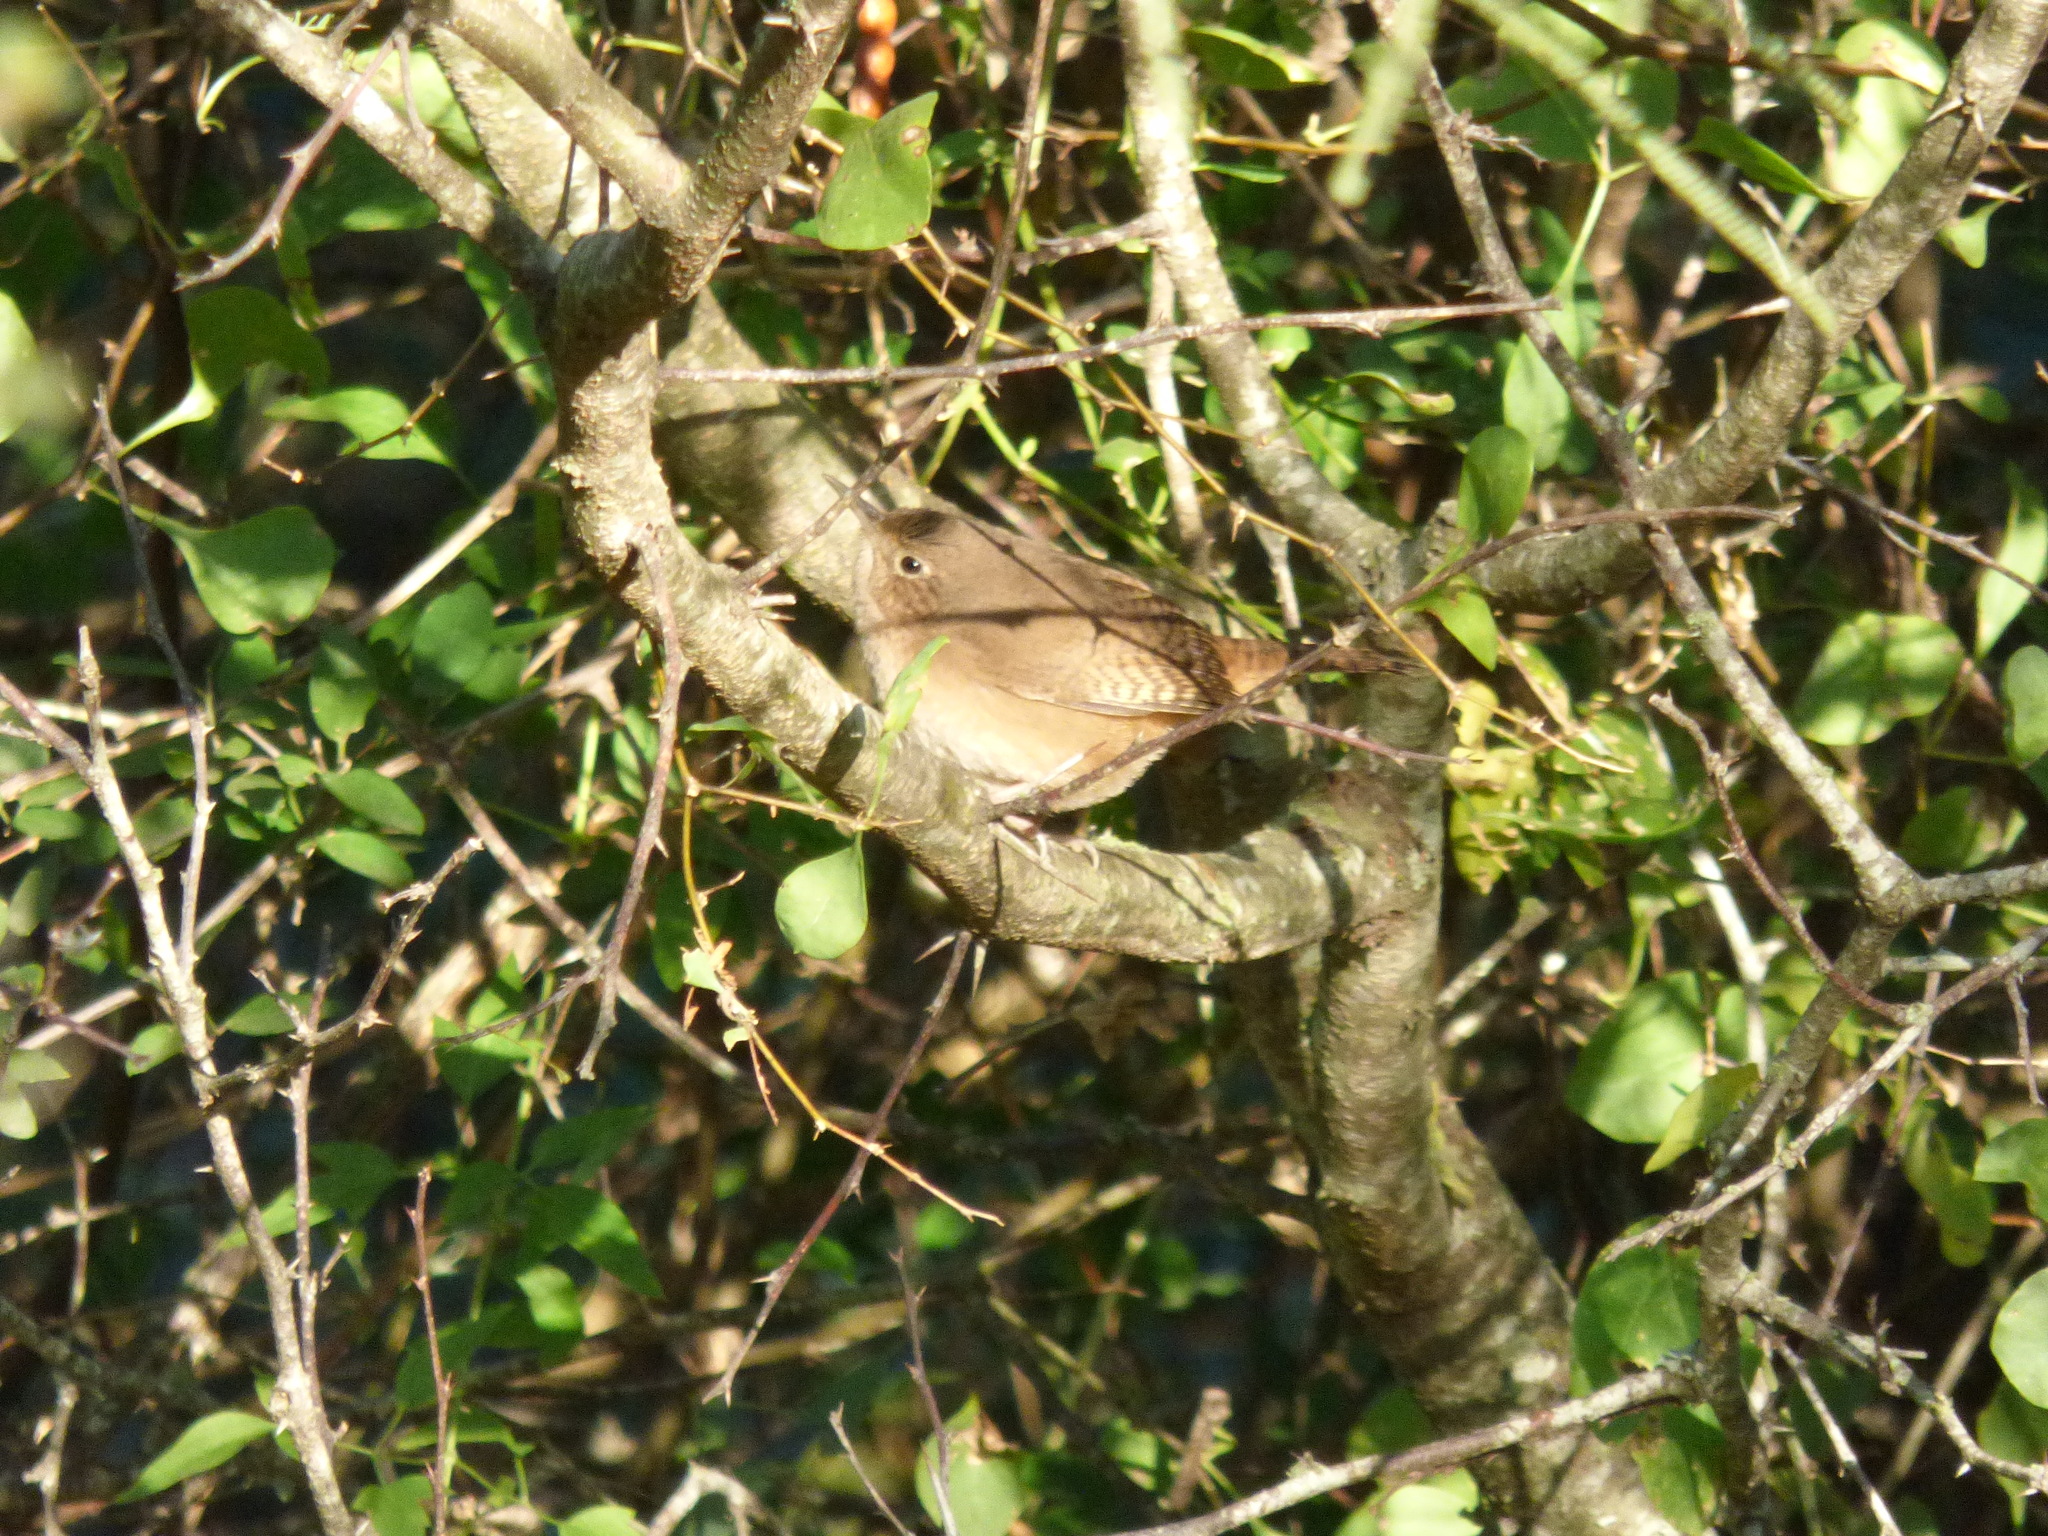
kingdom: Animalia
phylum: Chordata
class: Aves
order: Passeriformes
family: Troglodytidae
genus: Troglodytes
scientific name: Troglodytes aedon
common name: House wren
